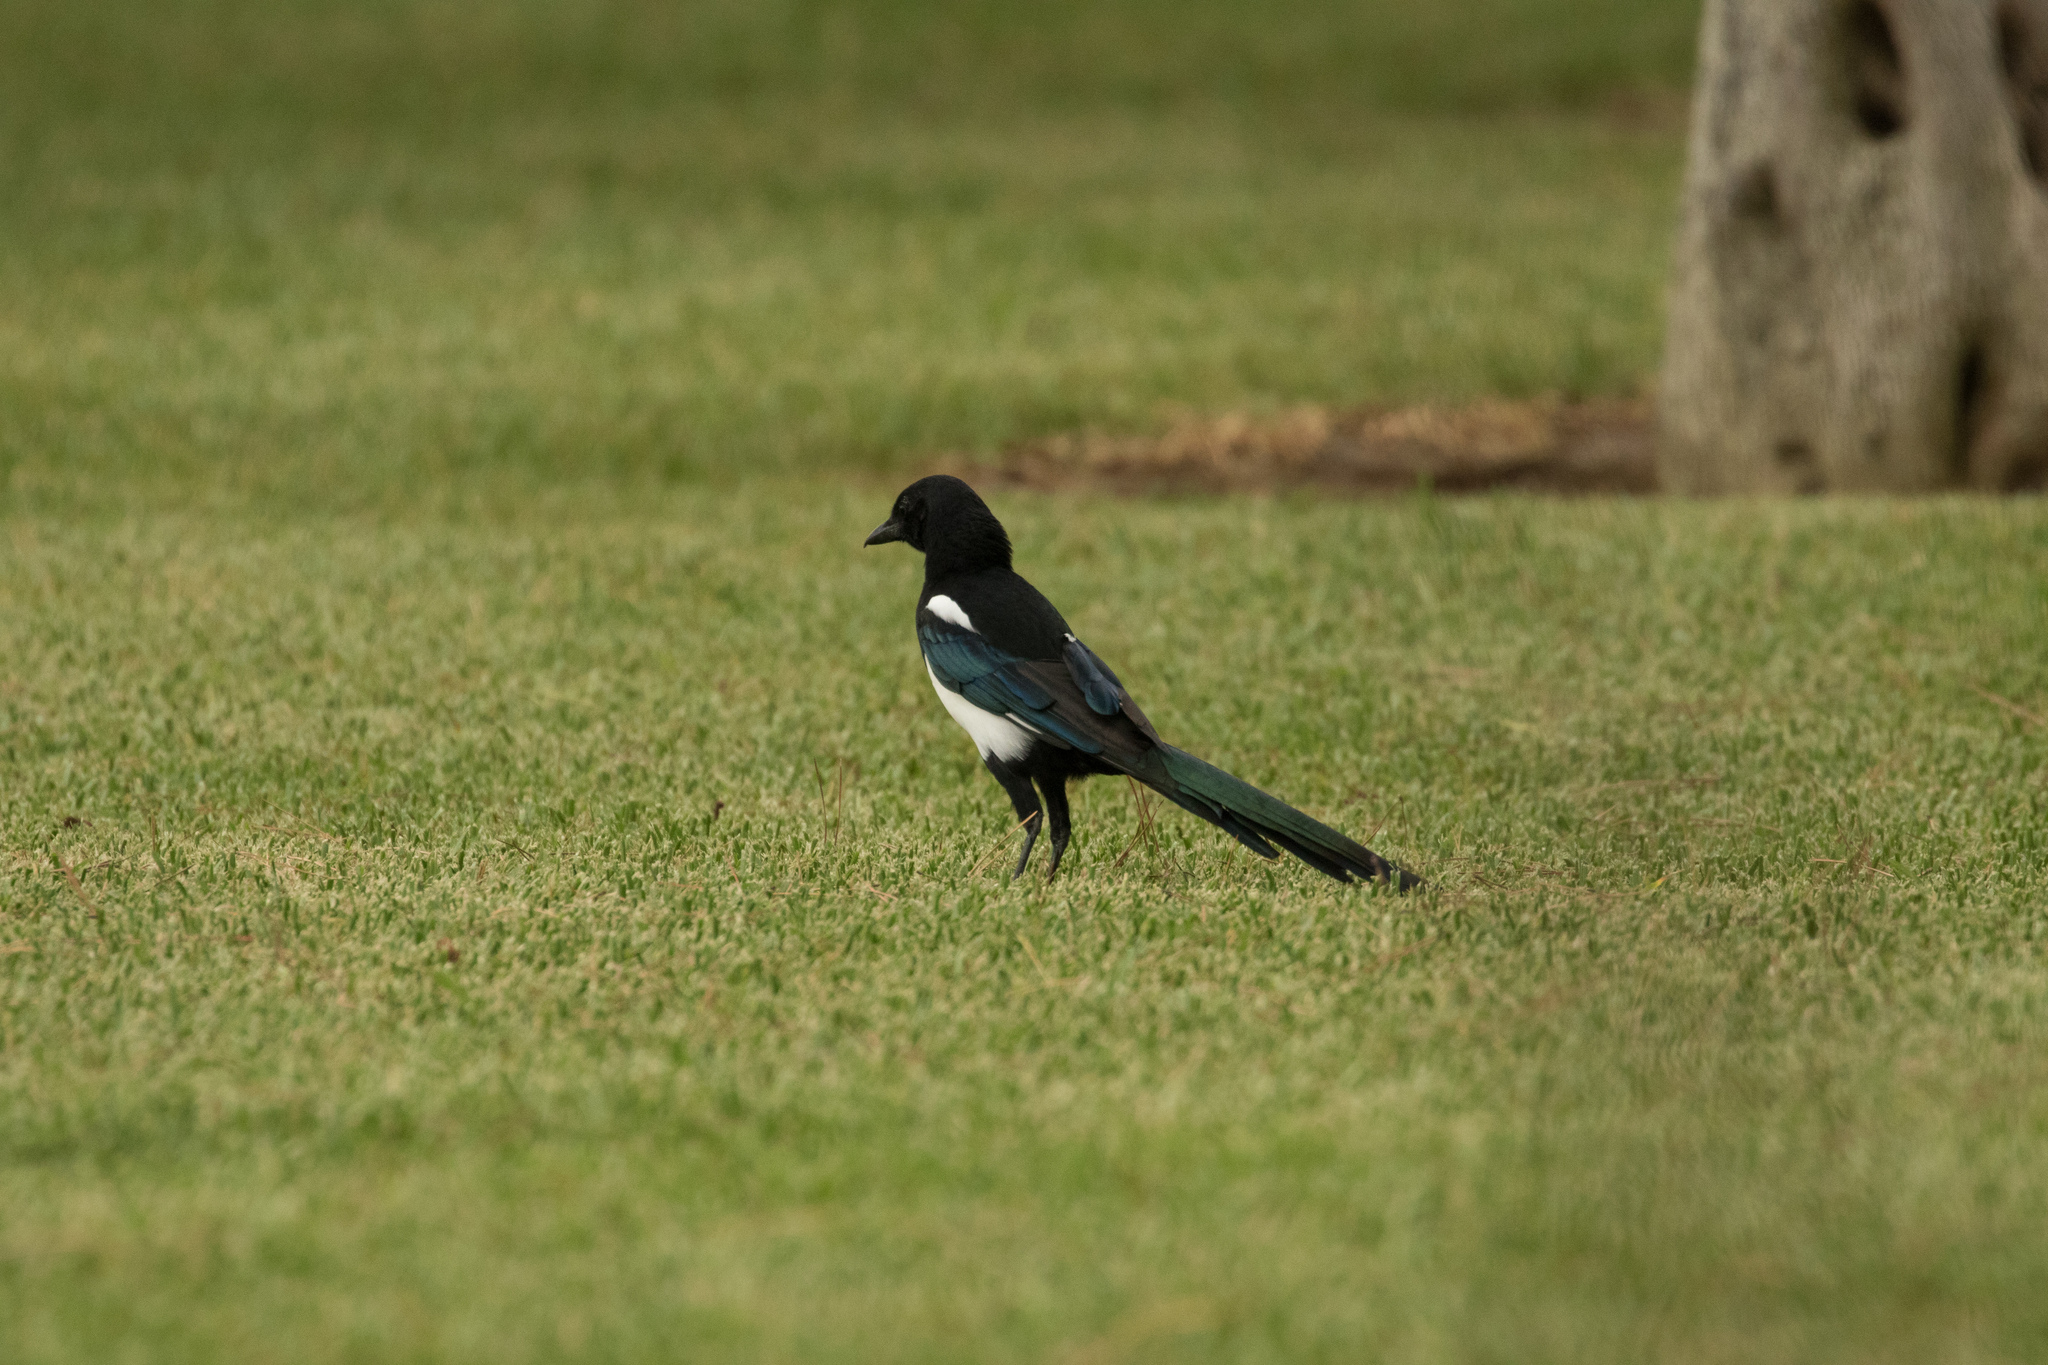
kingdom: Animalia
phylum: Chordata
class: Aves
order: Passeriformes
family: Corvidae
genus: Pica
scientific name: Pica pica
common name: Eurasian magpie
